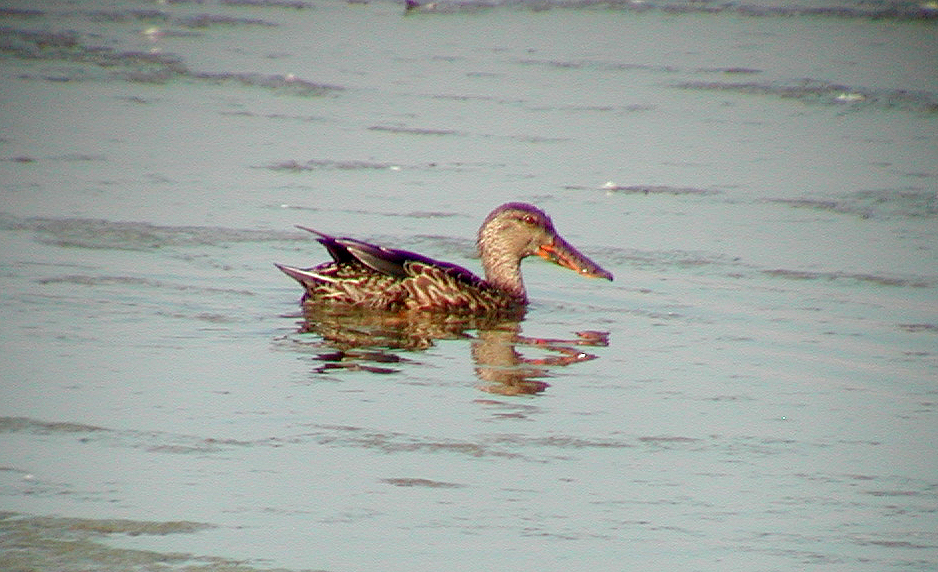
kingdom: Animalia
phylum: Chordata
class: Aves
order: Anseriformes
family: Anatidae
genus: Spatula
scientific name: Spatula clypeata
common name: Northern shoveler
